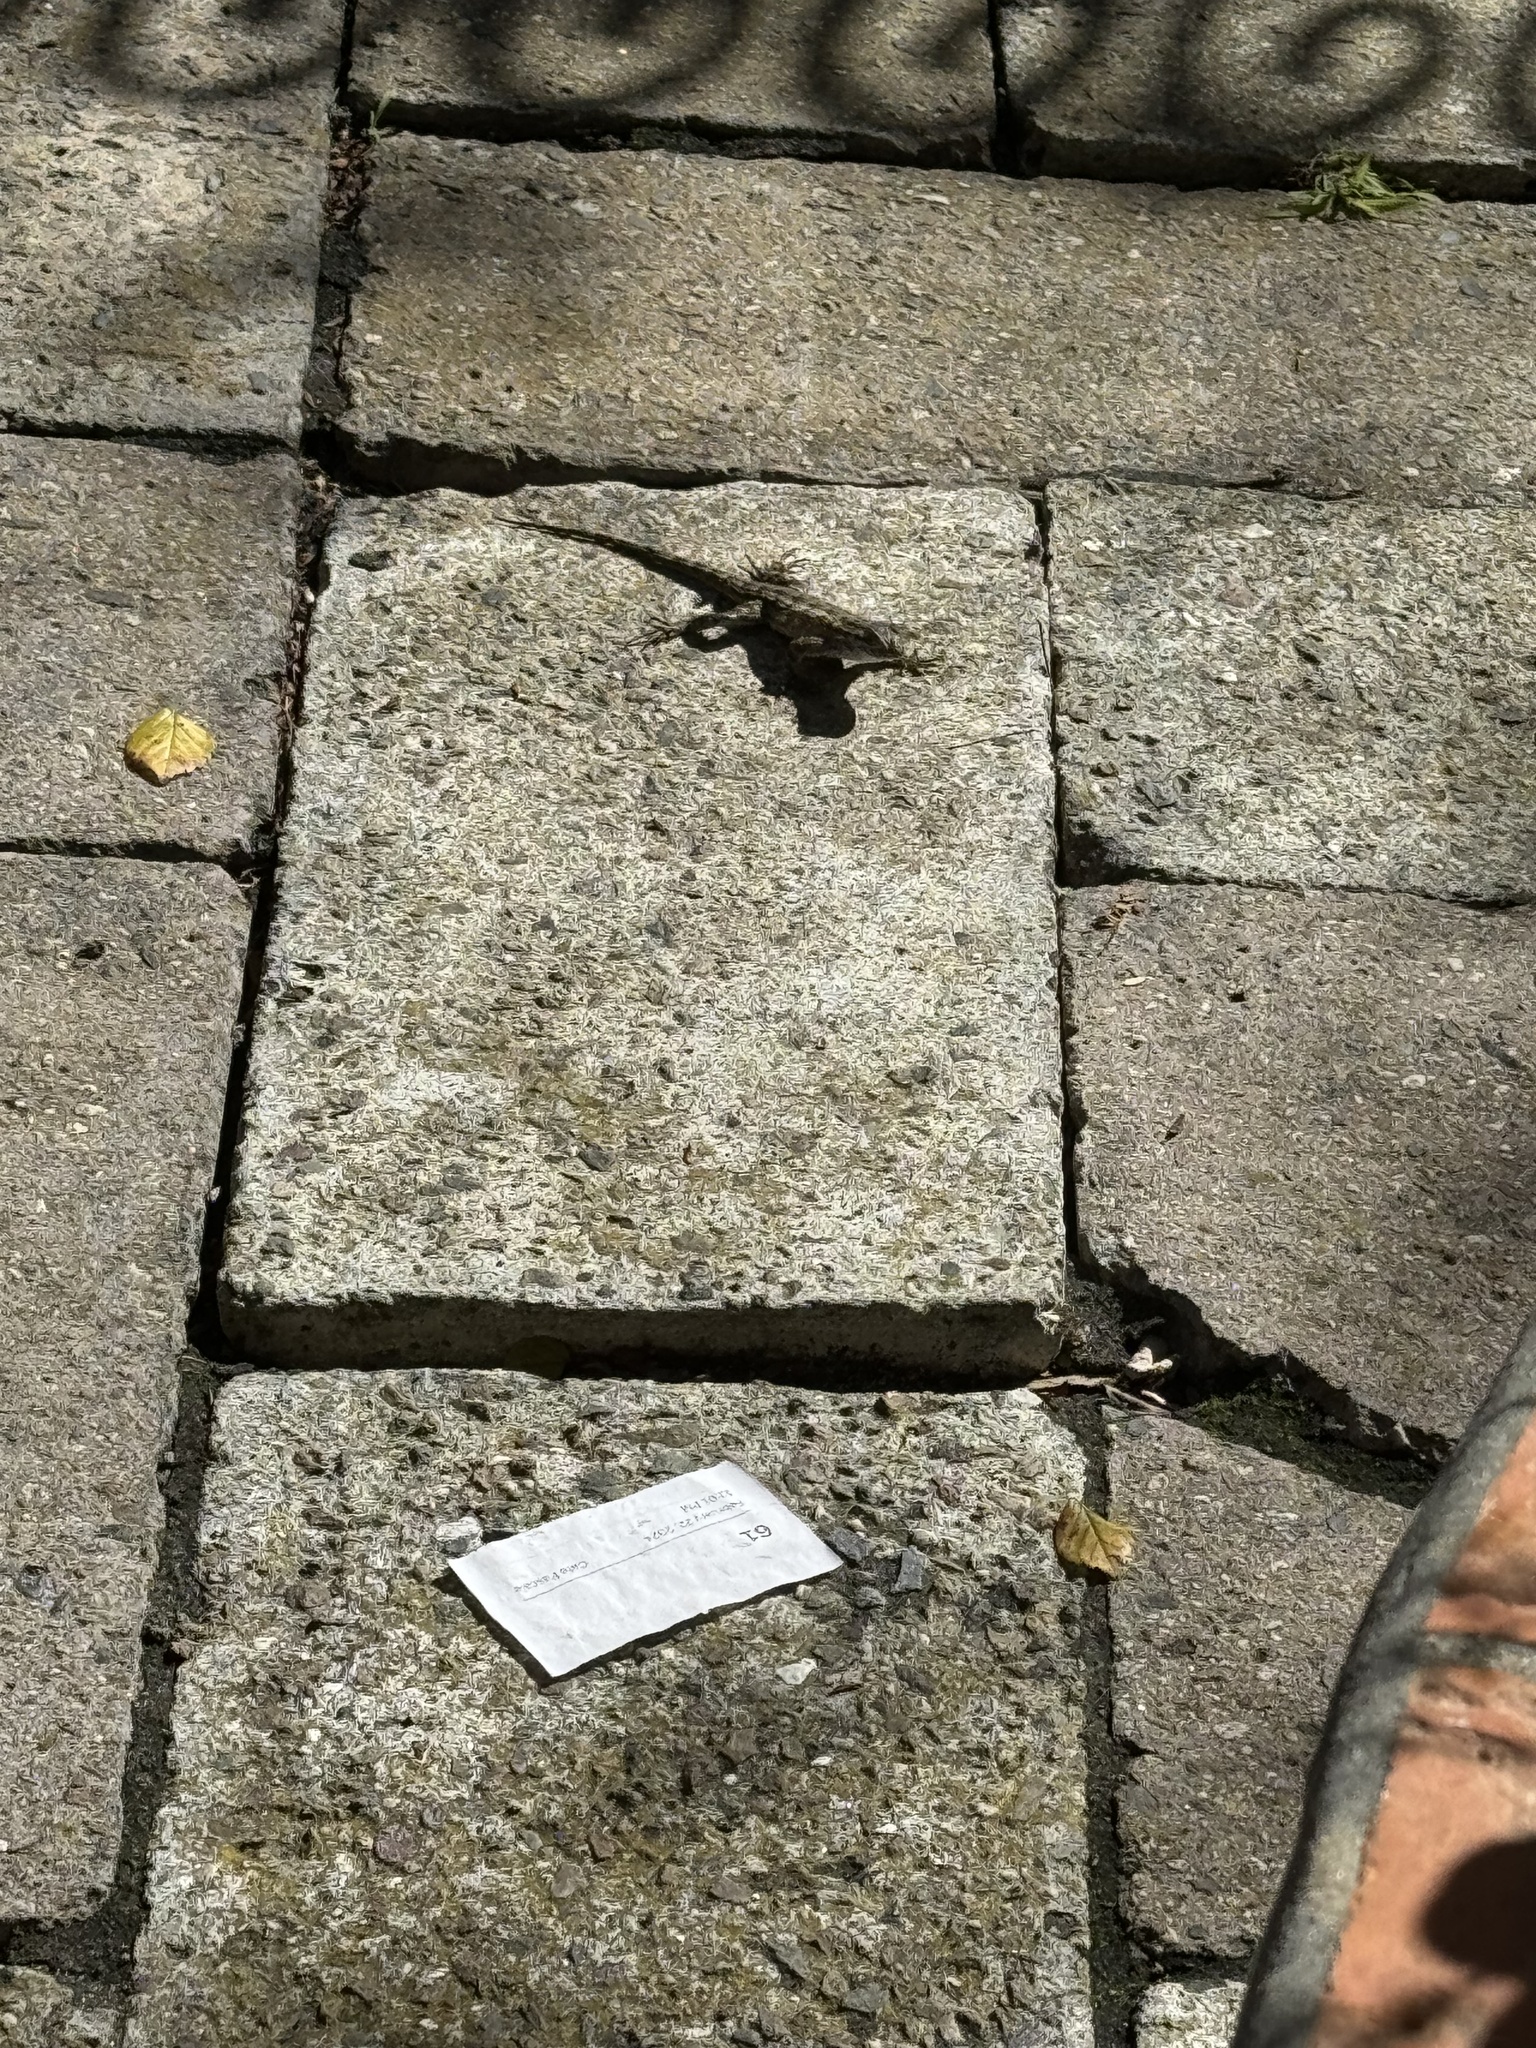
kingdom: Animalia
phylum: Chordata
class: Squamata
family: Phrynosomatidae
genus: Sceloporus
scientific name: Sceloporus occidentalis
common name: Western fence lizard
